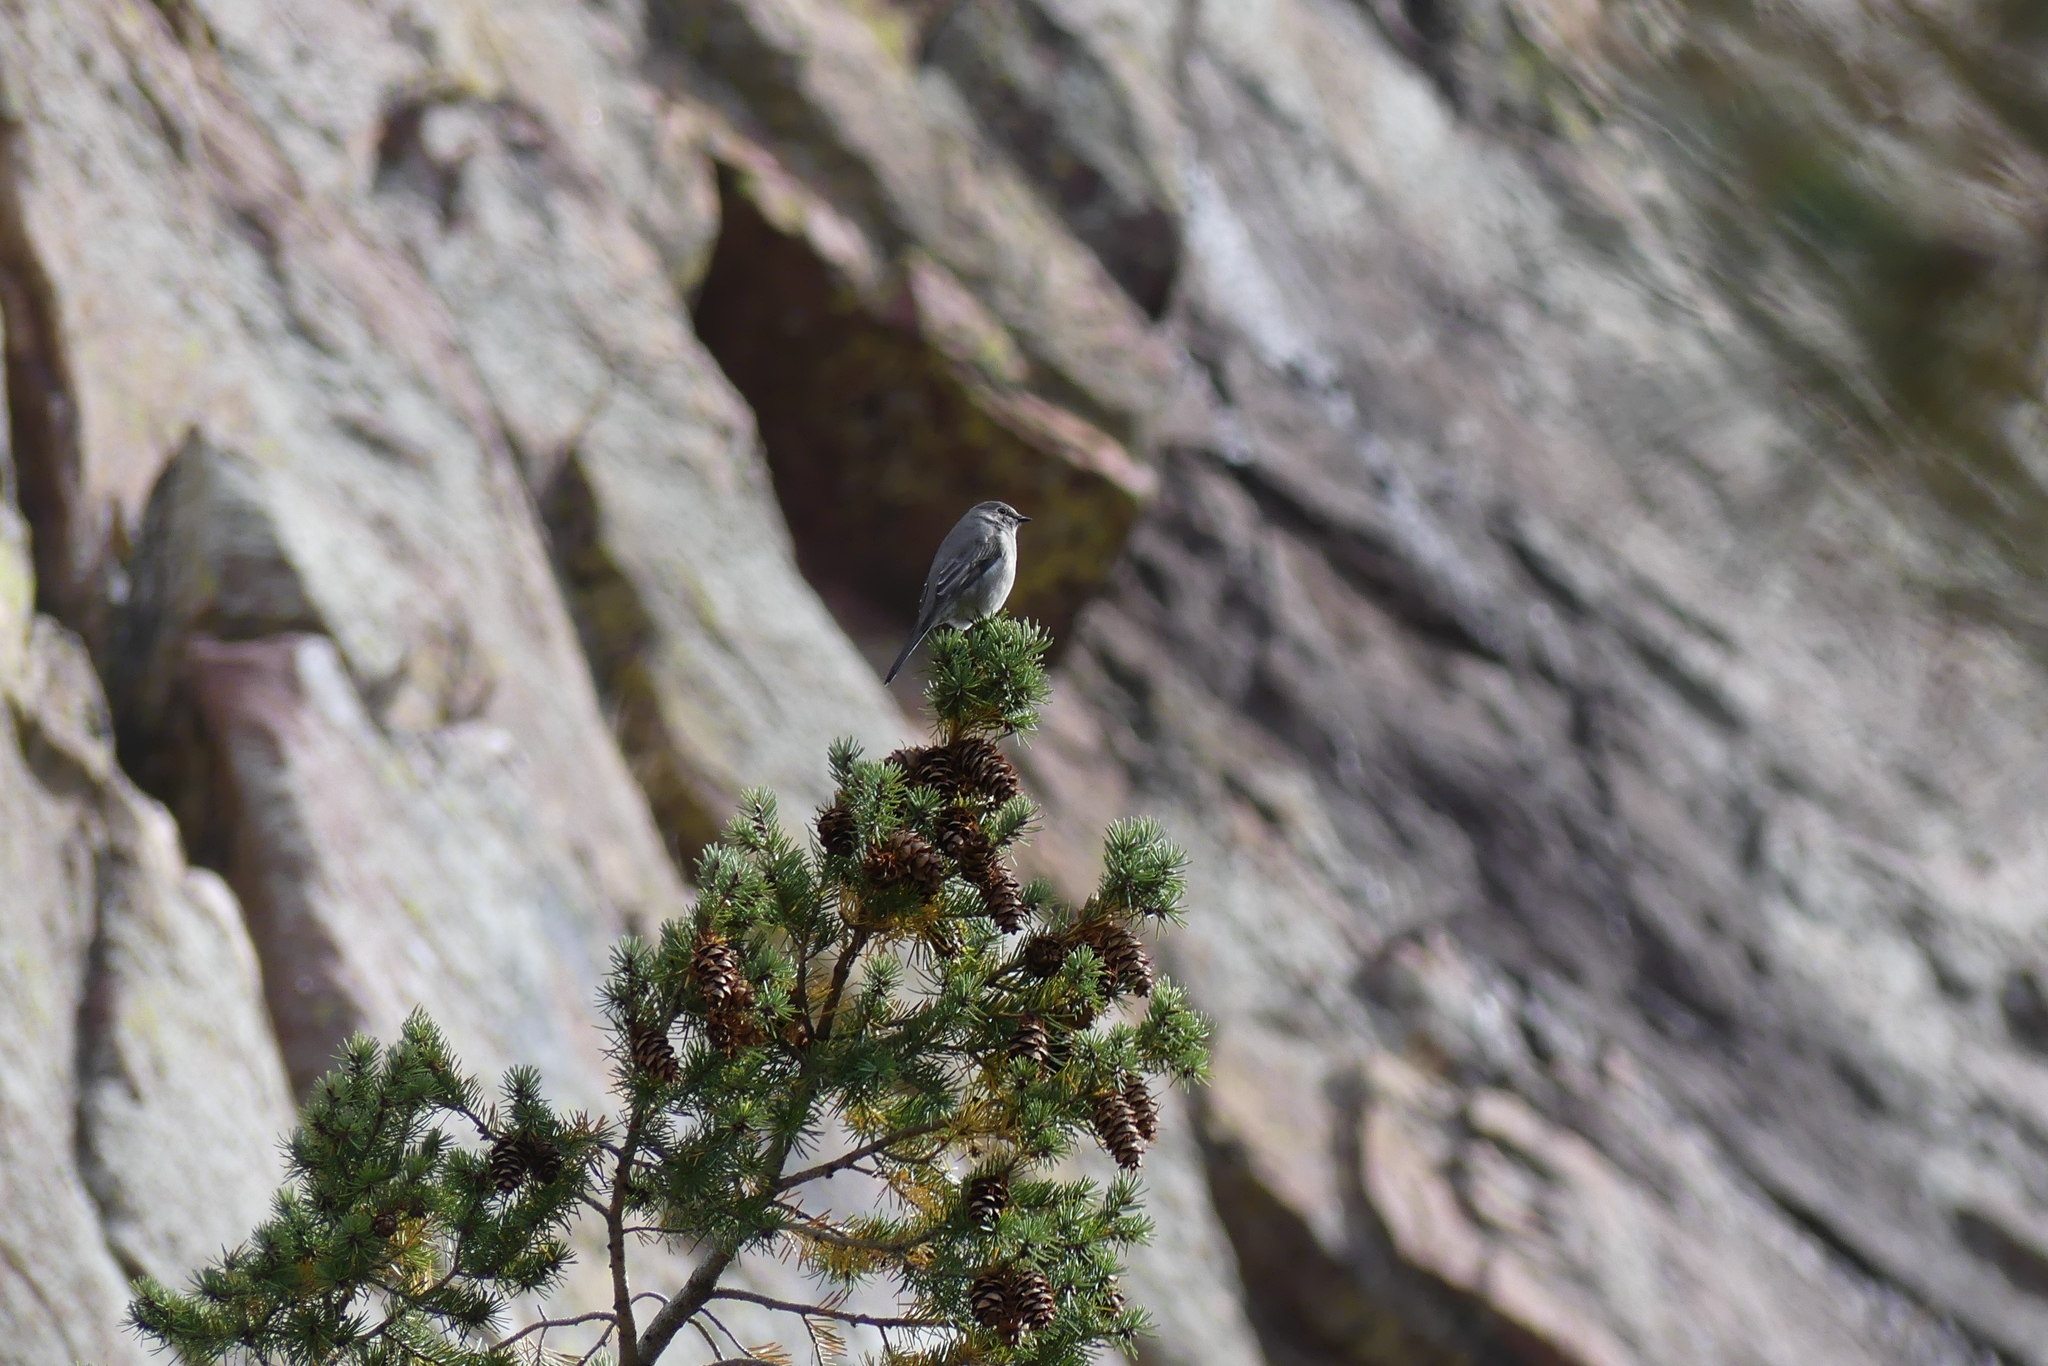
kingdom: Animalia
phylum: Chordata
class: Aves
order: Passeriformes
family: Turdidae
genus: Myadestes
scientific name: Myadestes townsendi
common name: Townsend's solitaire
